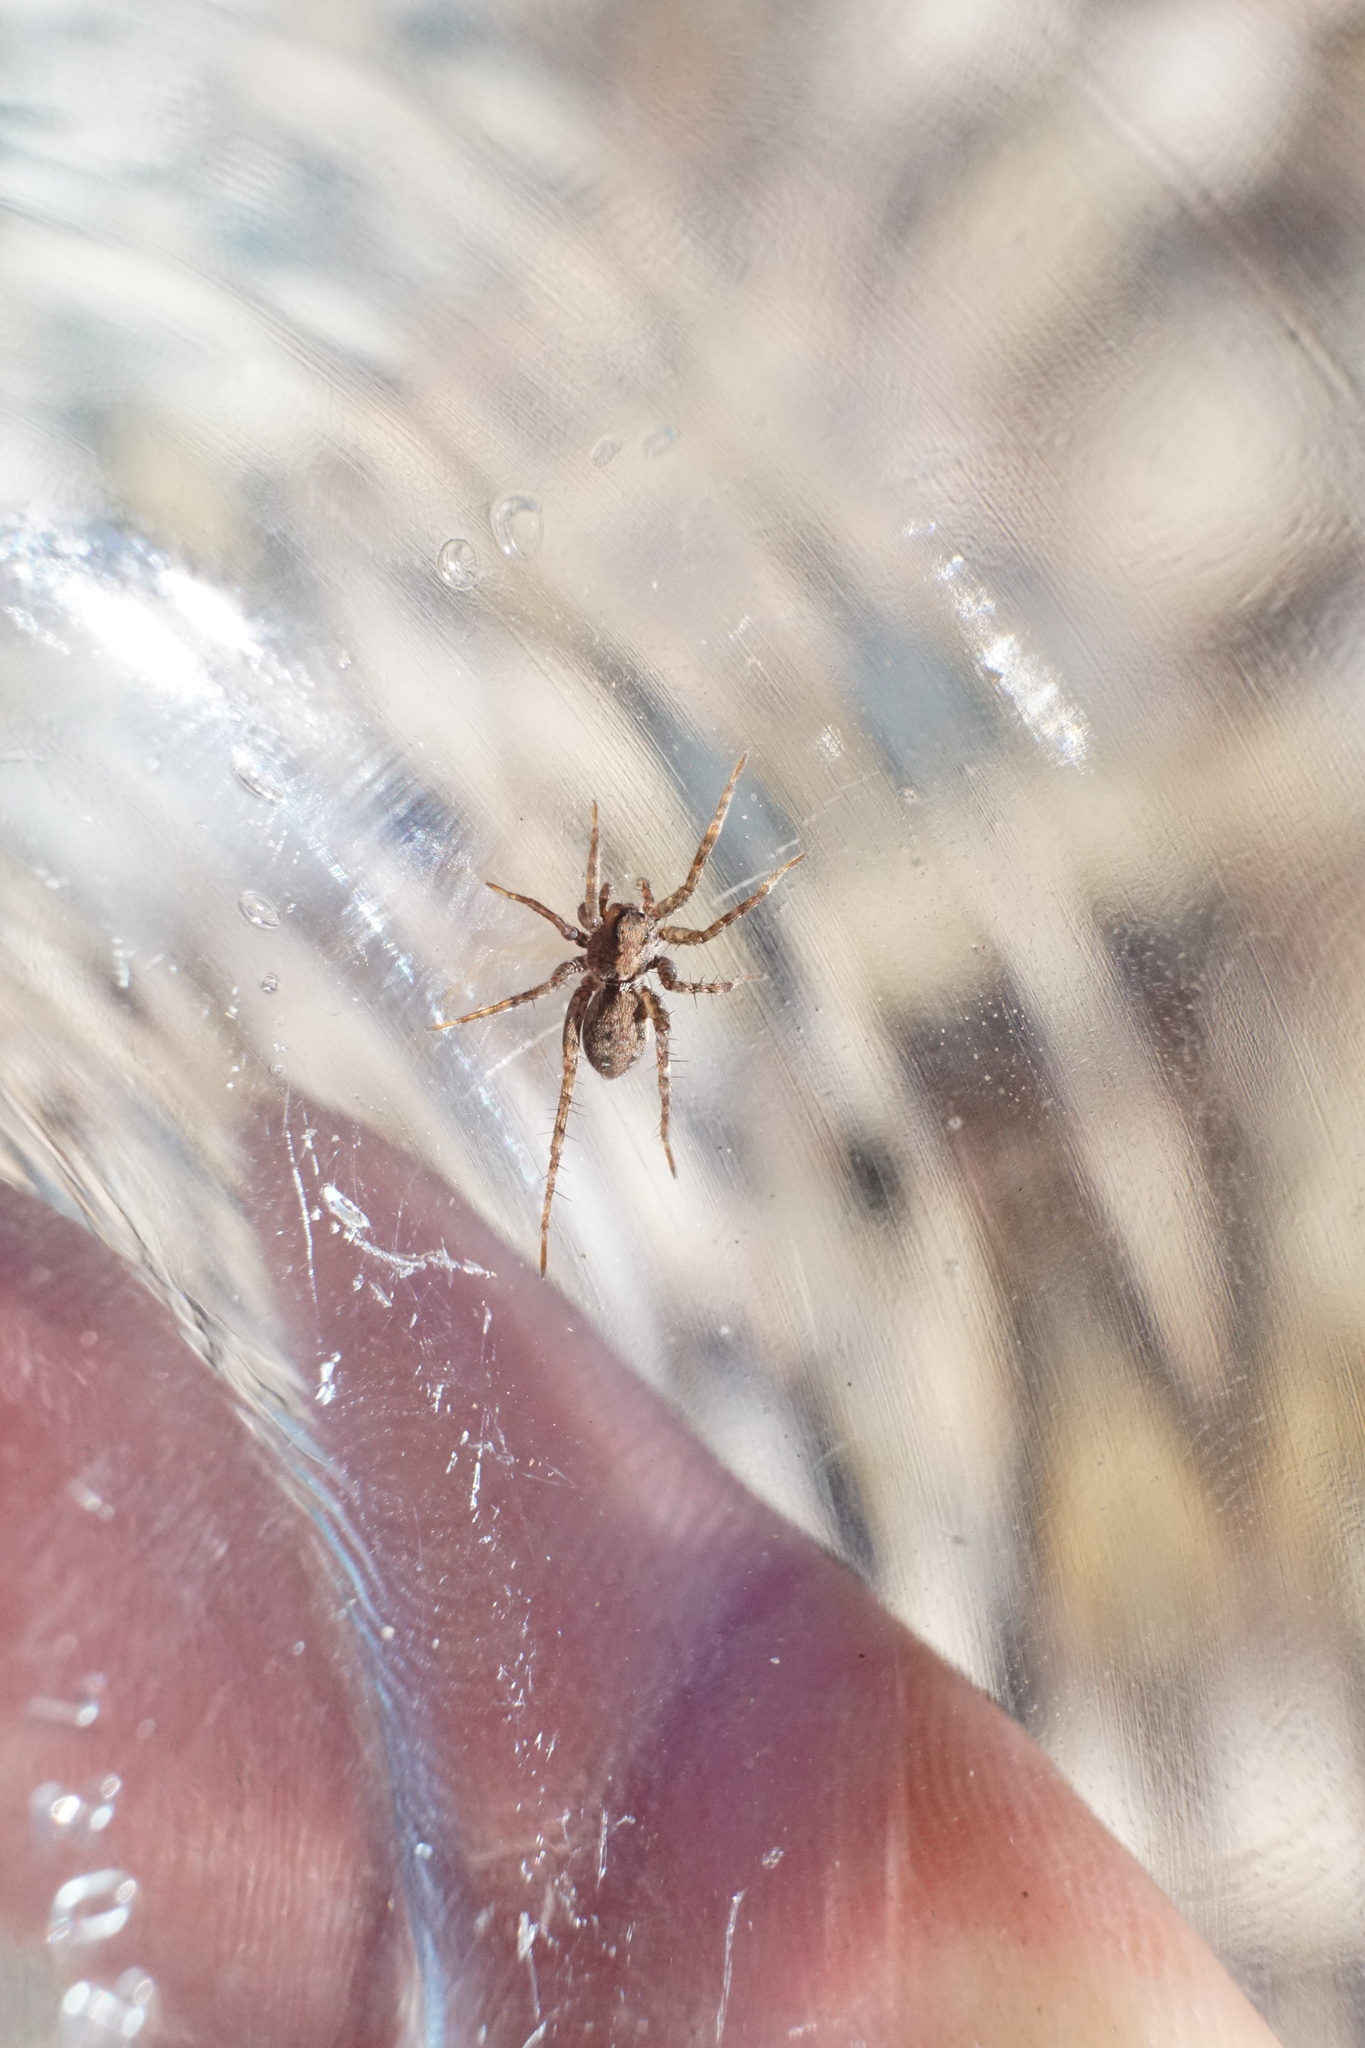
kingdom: Animalia
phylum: Arthropoda
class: Arachnida
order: Araneae
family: Lycosidae
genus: Pardosa
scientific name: Pardosa milvina
